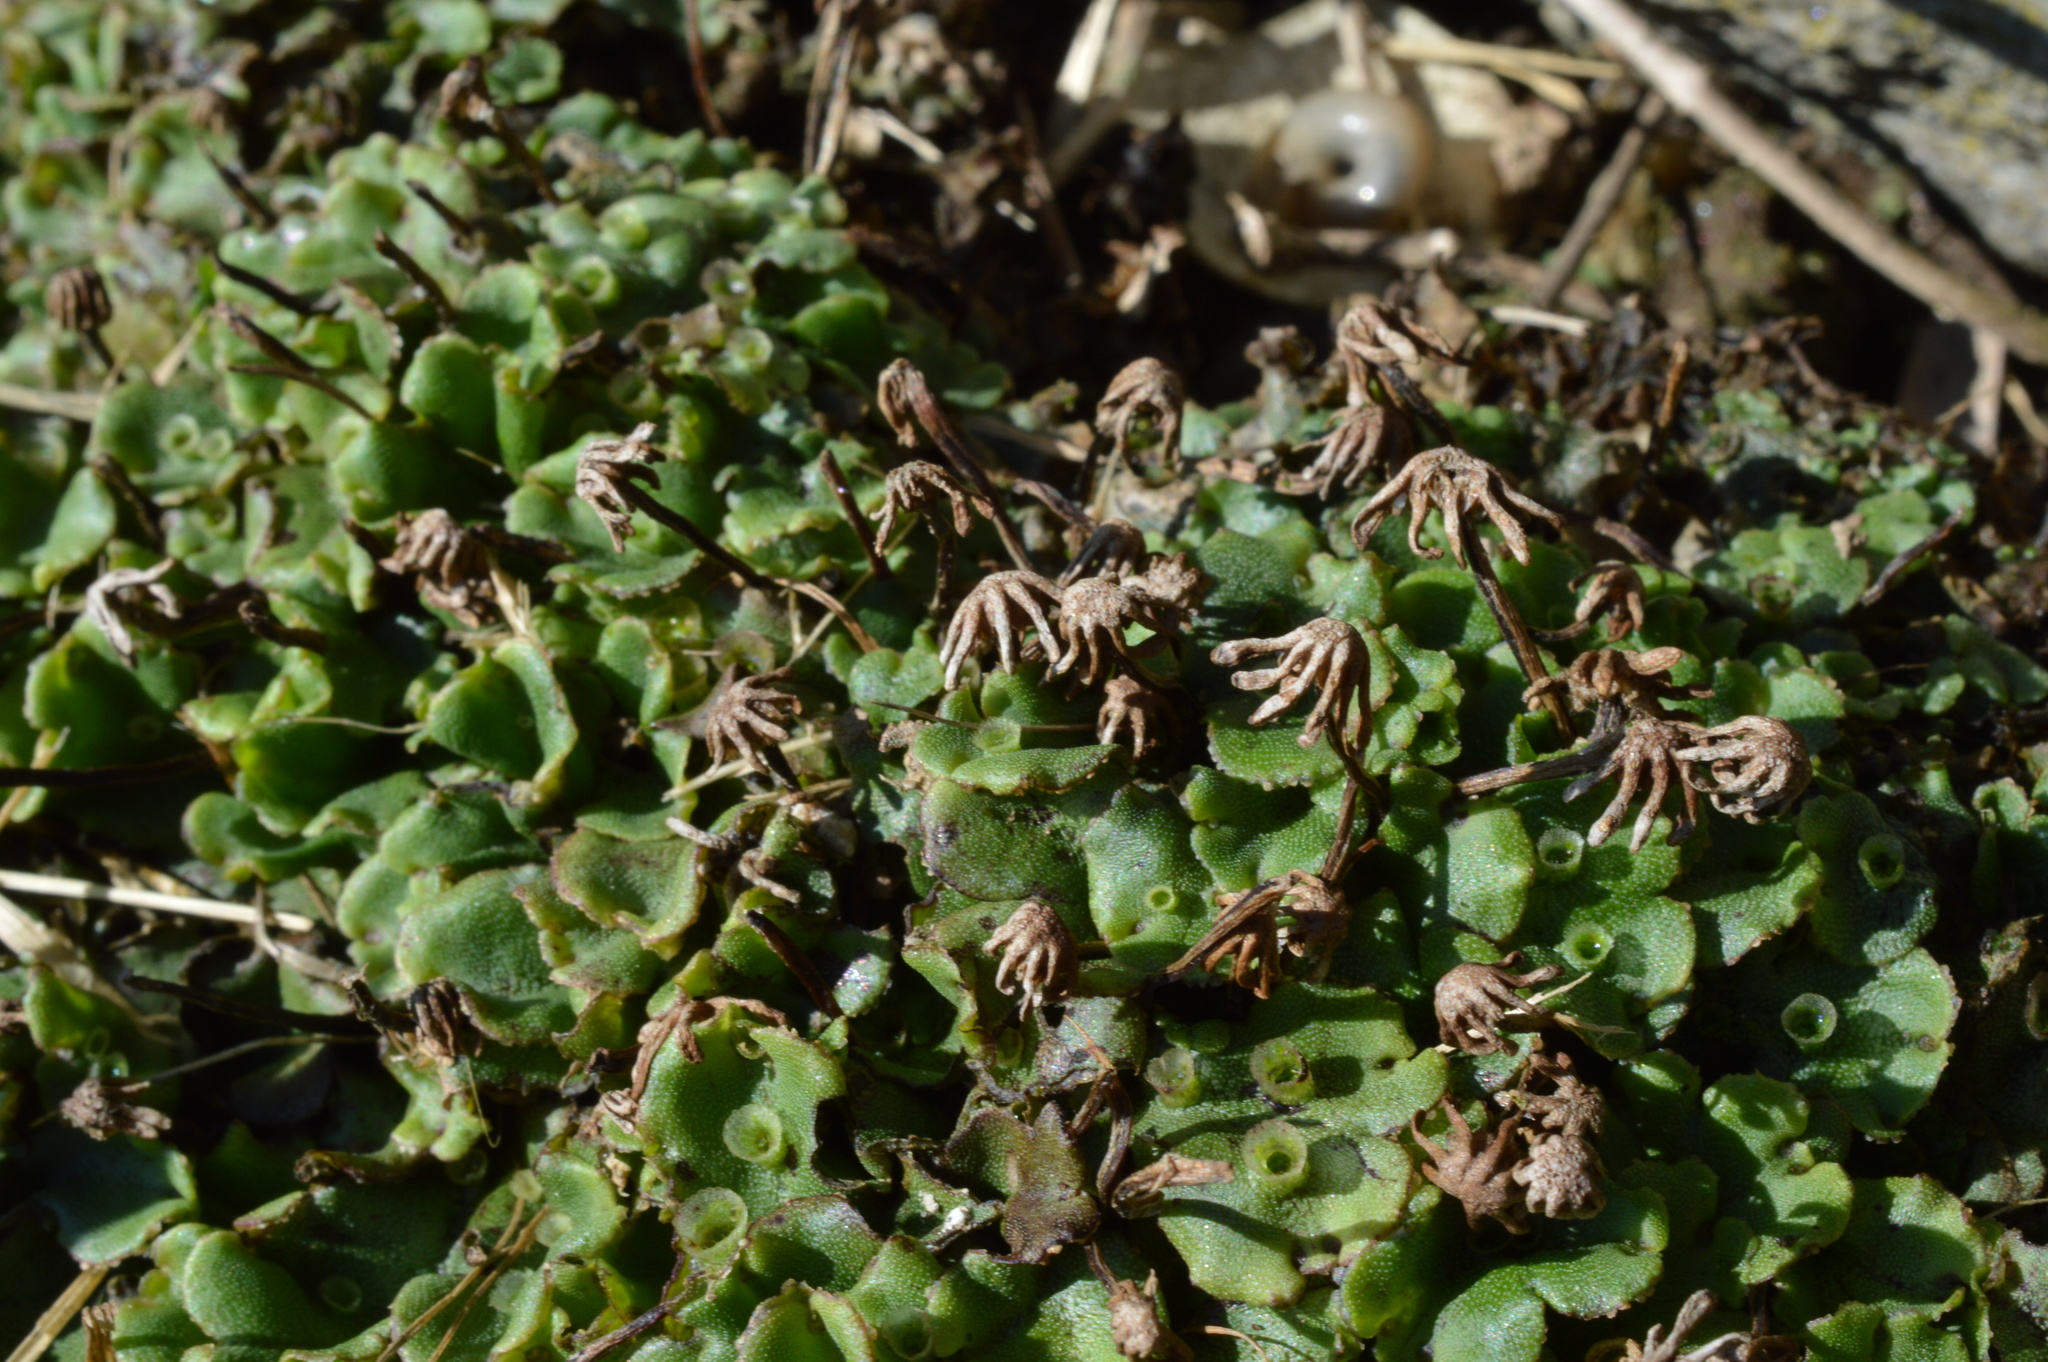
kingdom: Plantae
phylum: Marchantiophyta
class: Marchantiopsida
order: Marchantiales
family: Marchantiaceae
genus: Marchantia
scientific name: Marchantia polymorpha
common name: Common liverwort
